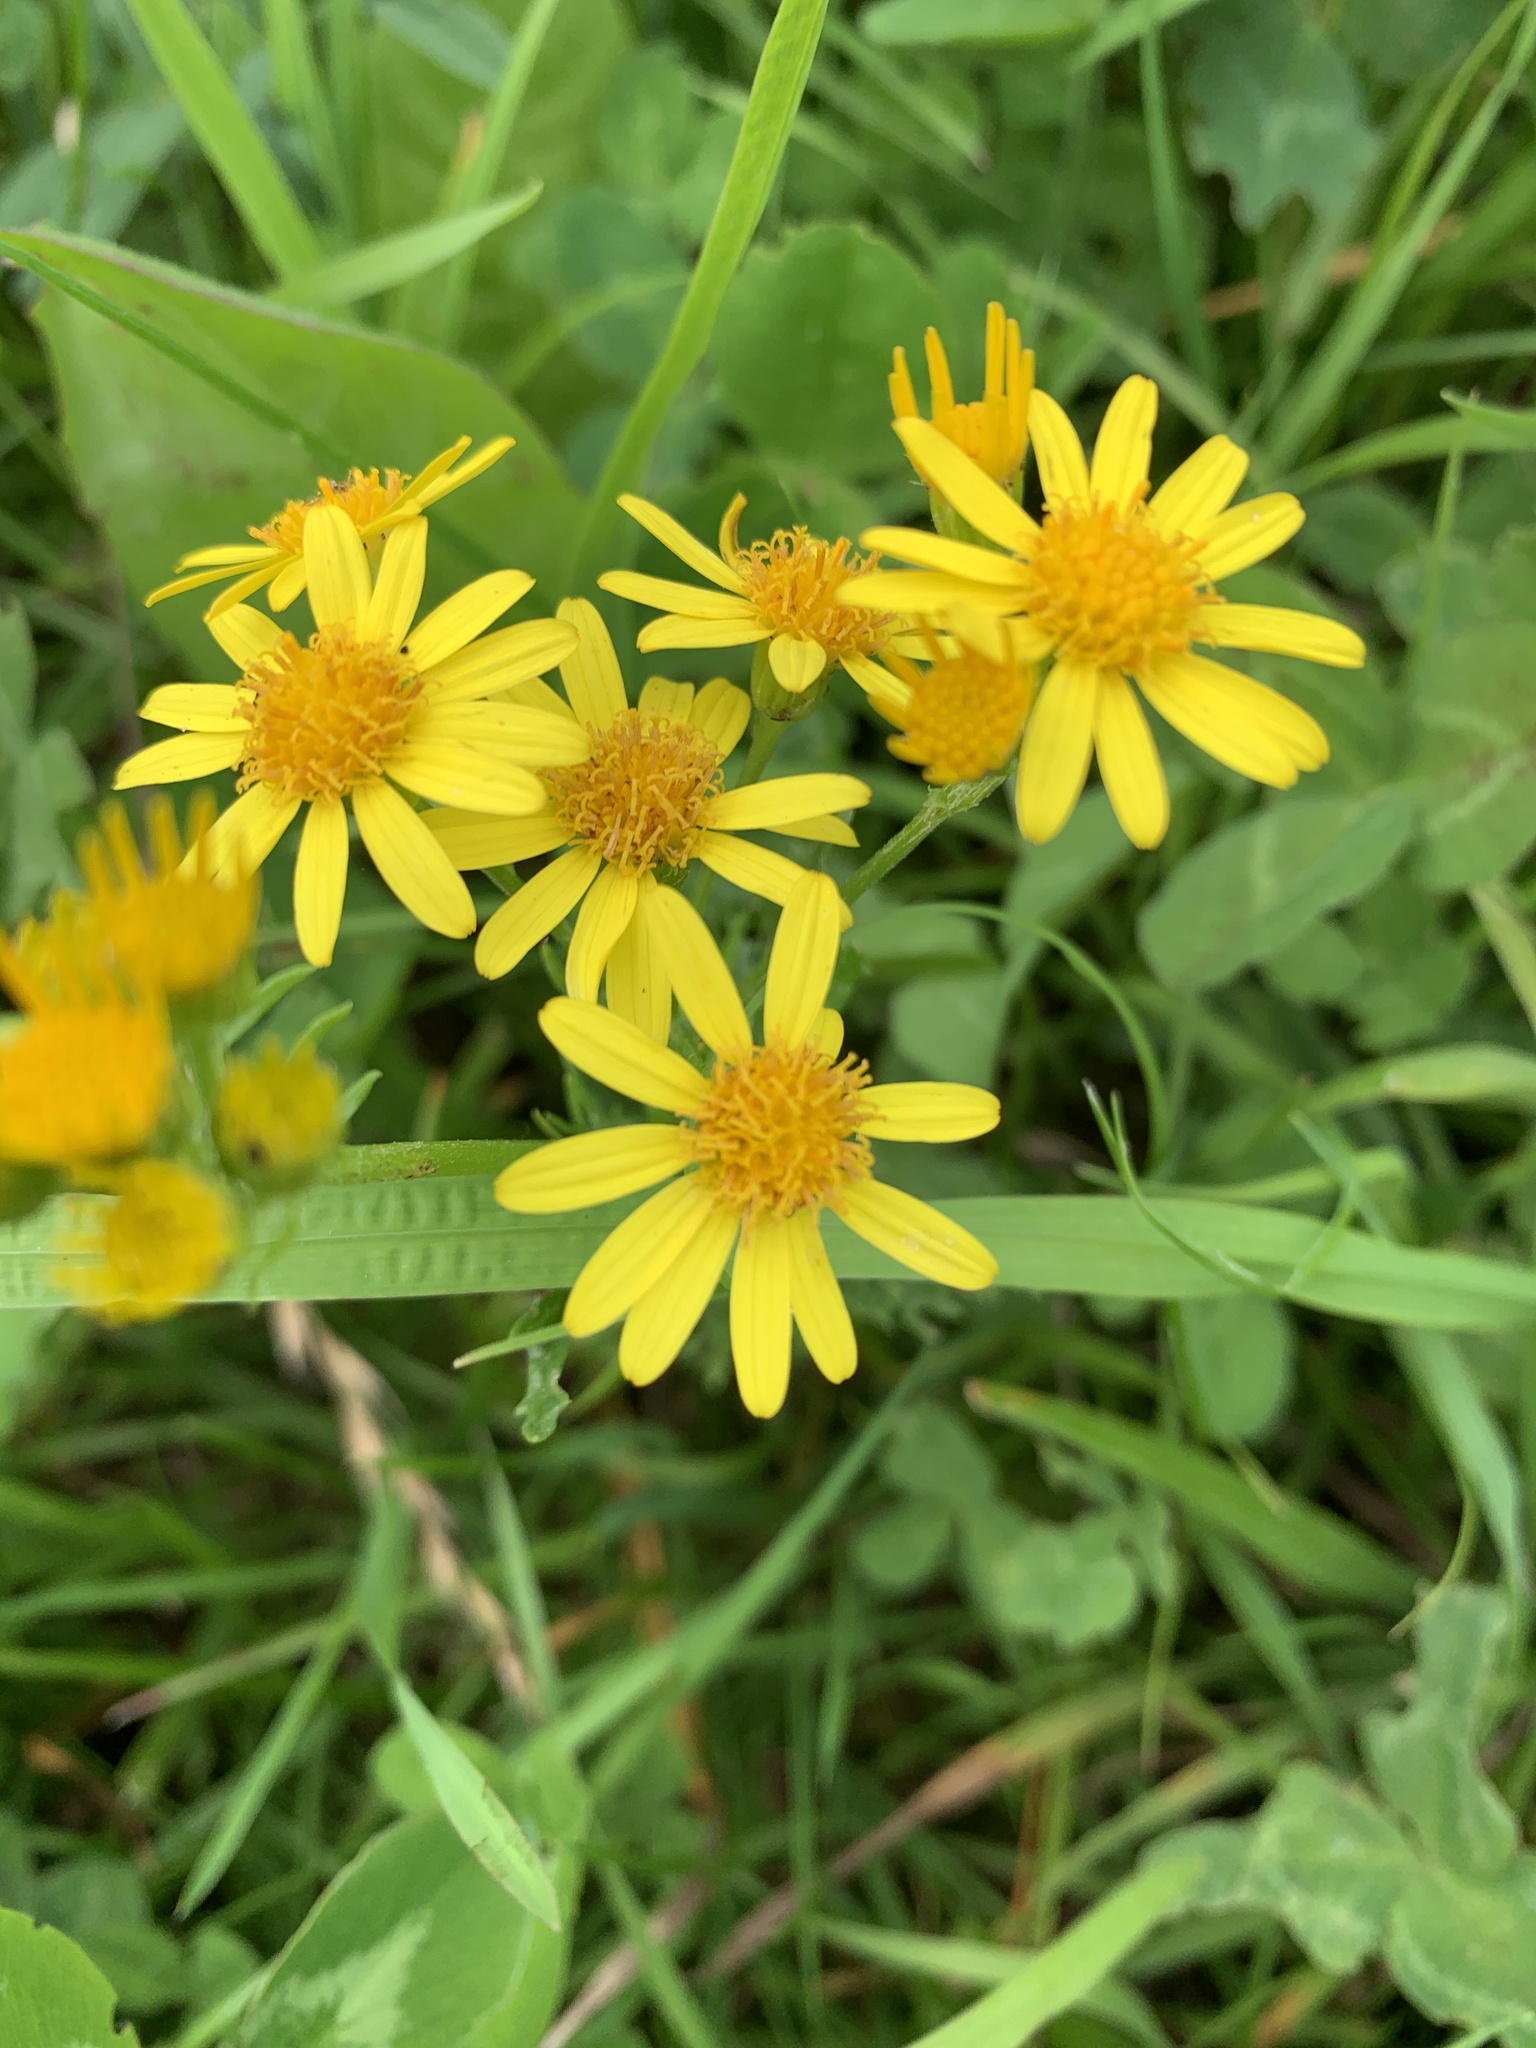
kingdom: Plantae
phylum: Tracheophyta
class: Magnoliopsida
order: Asterales
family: Asteraceae
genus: Jacobaea
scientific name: Jacobaea vulgaris
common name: Stinking willie
